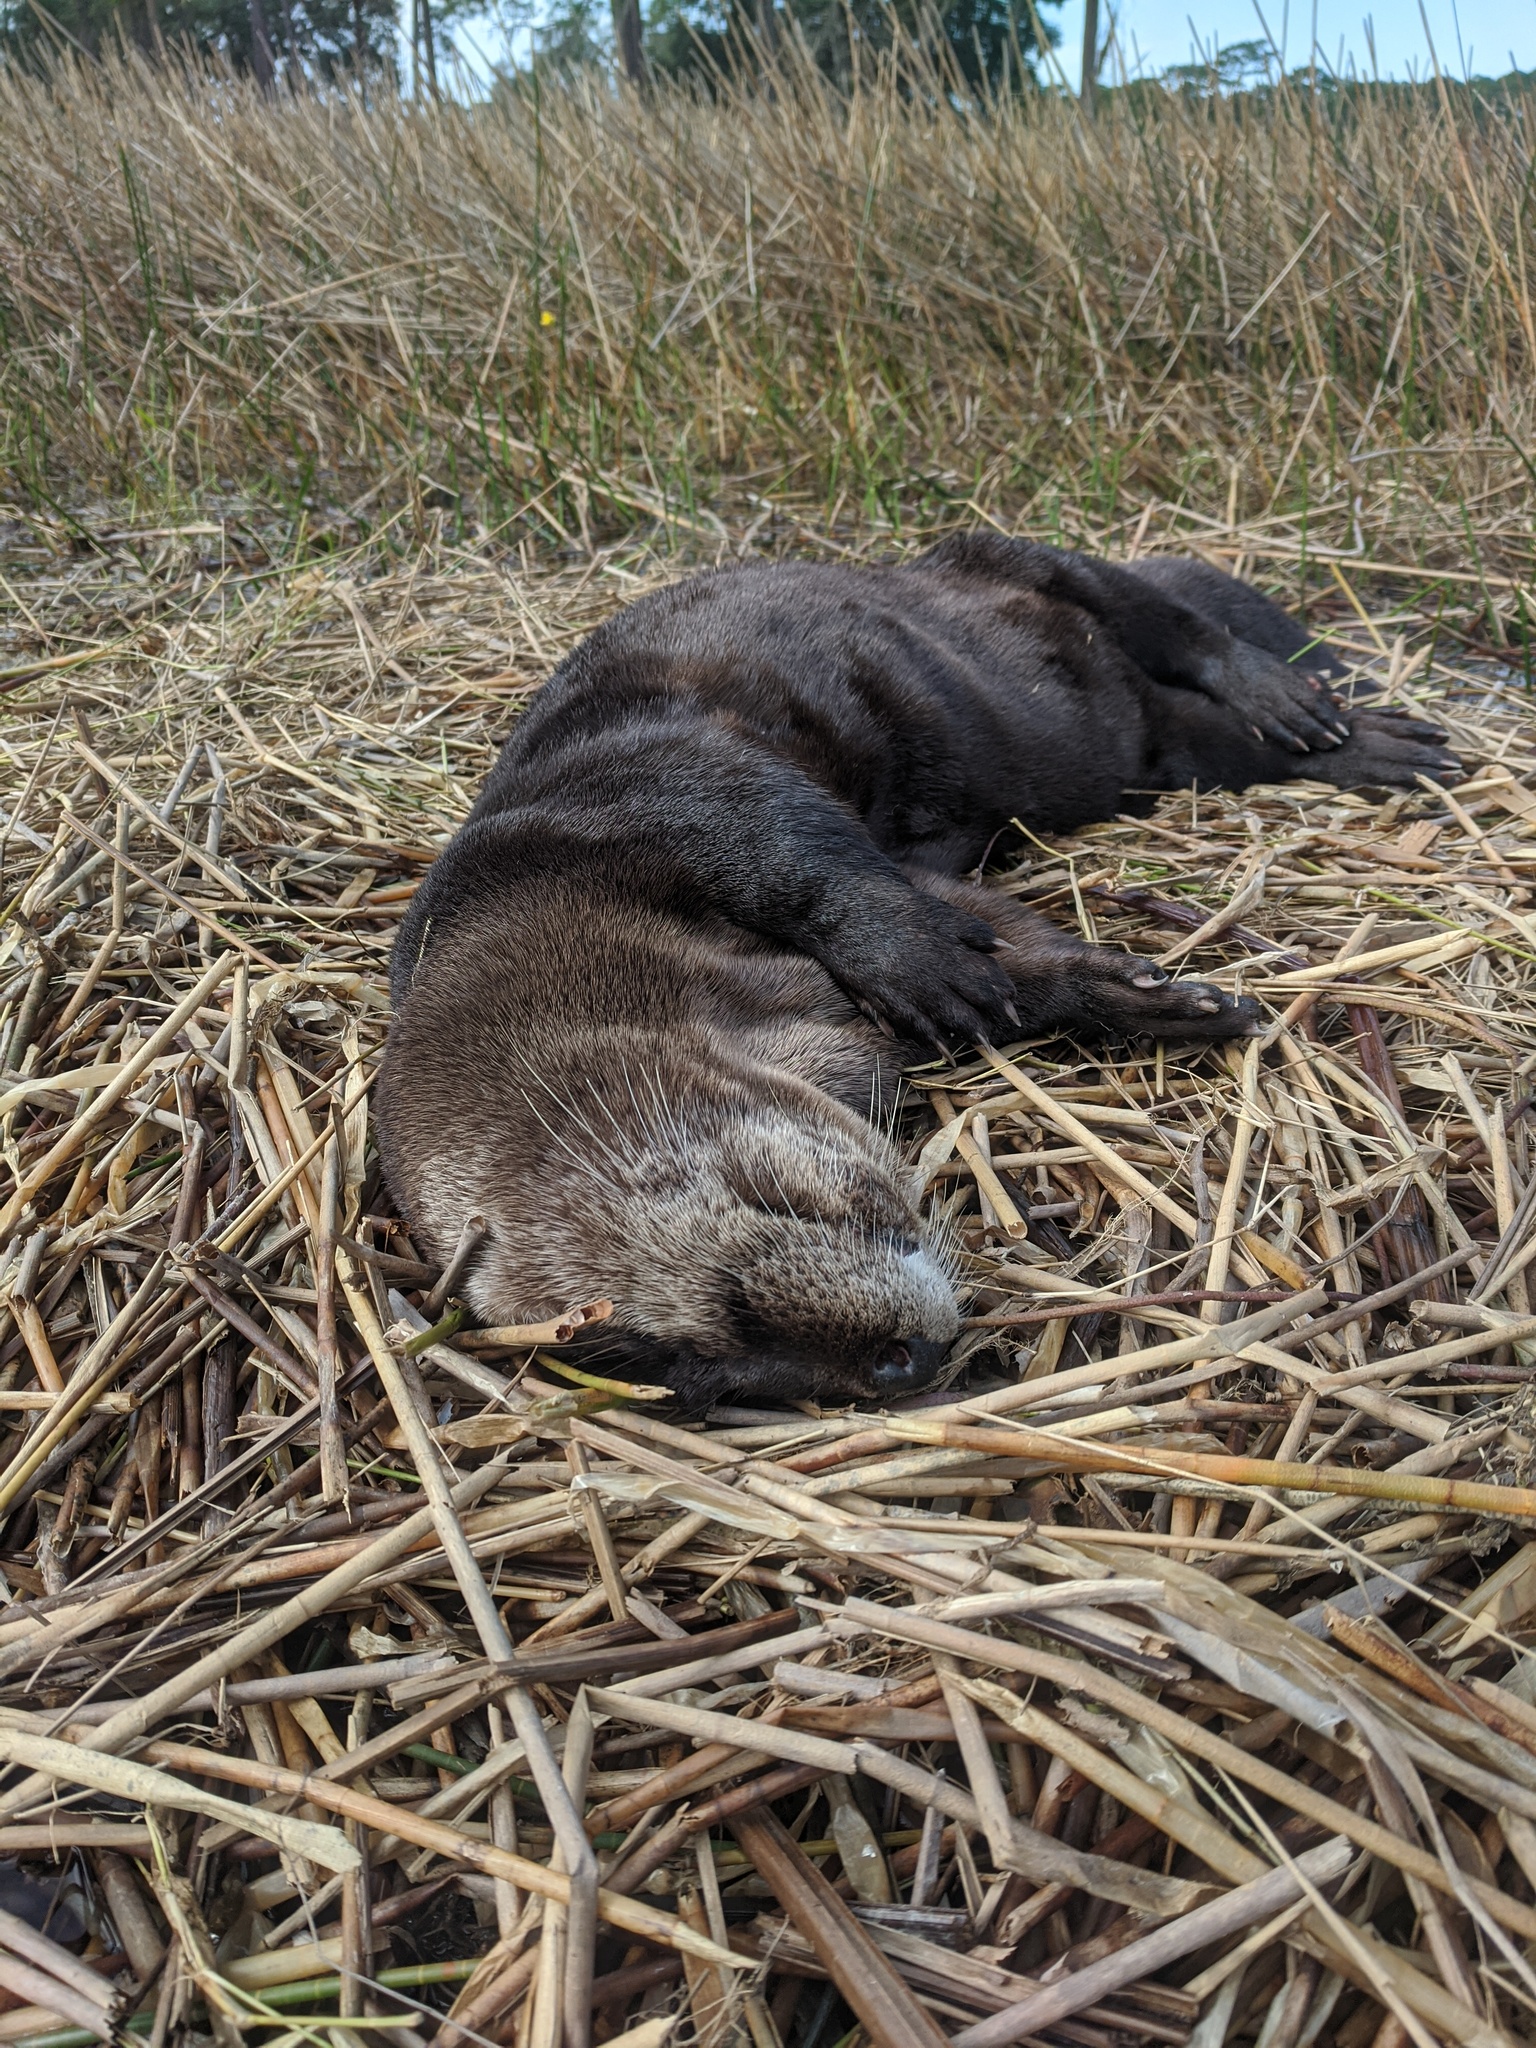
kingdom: Animalia
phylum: Chordata
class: Mammalia
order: Carnivora
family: Mustelidae
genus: Lontra
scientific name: Lontra canadensis
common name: North american river otter
